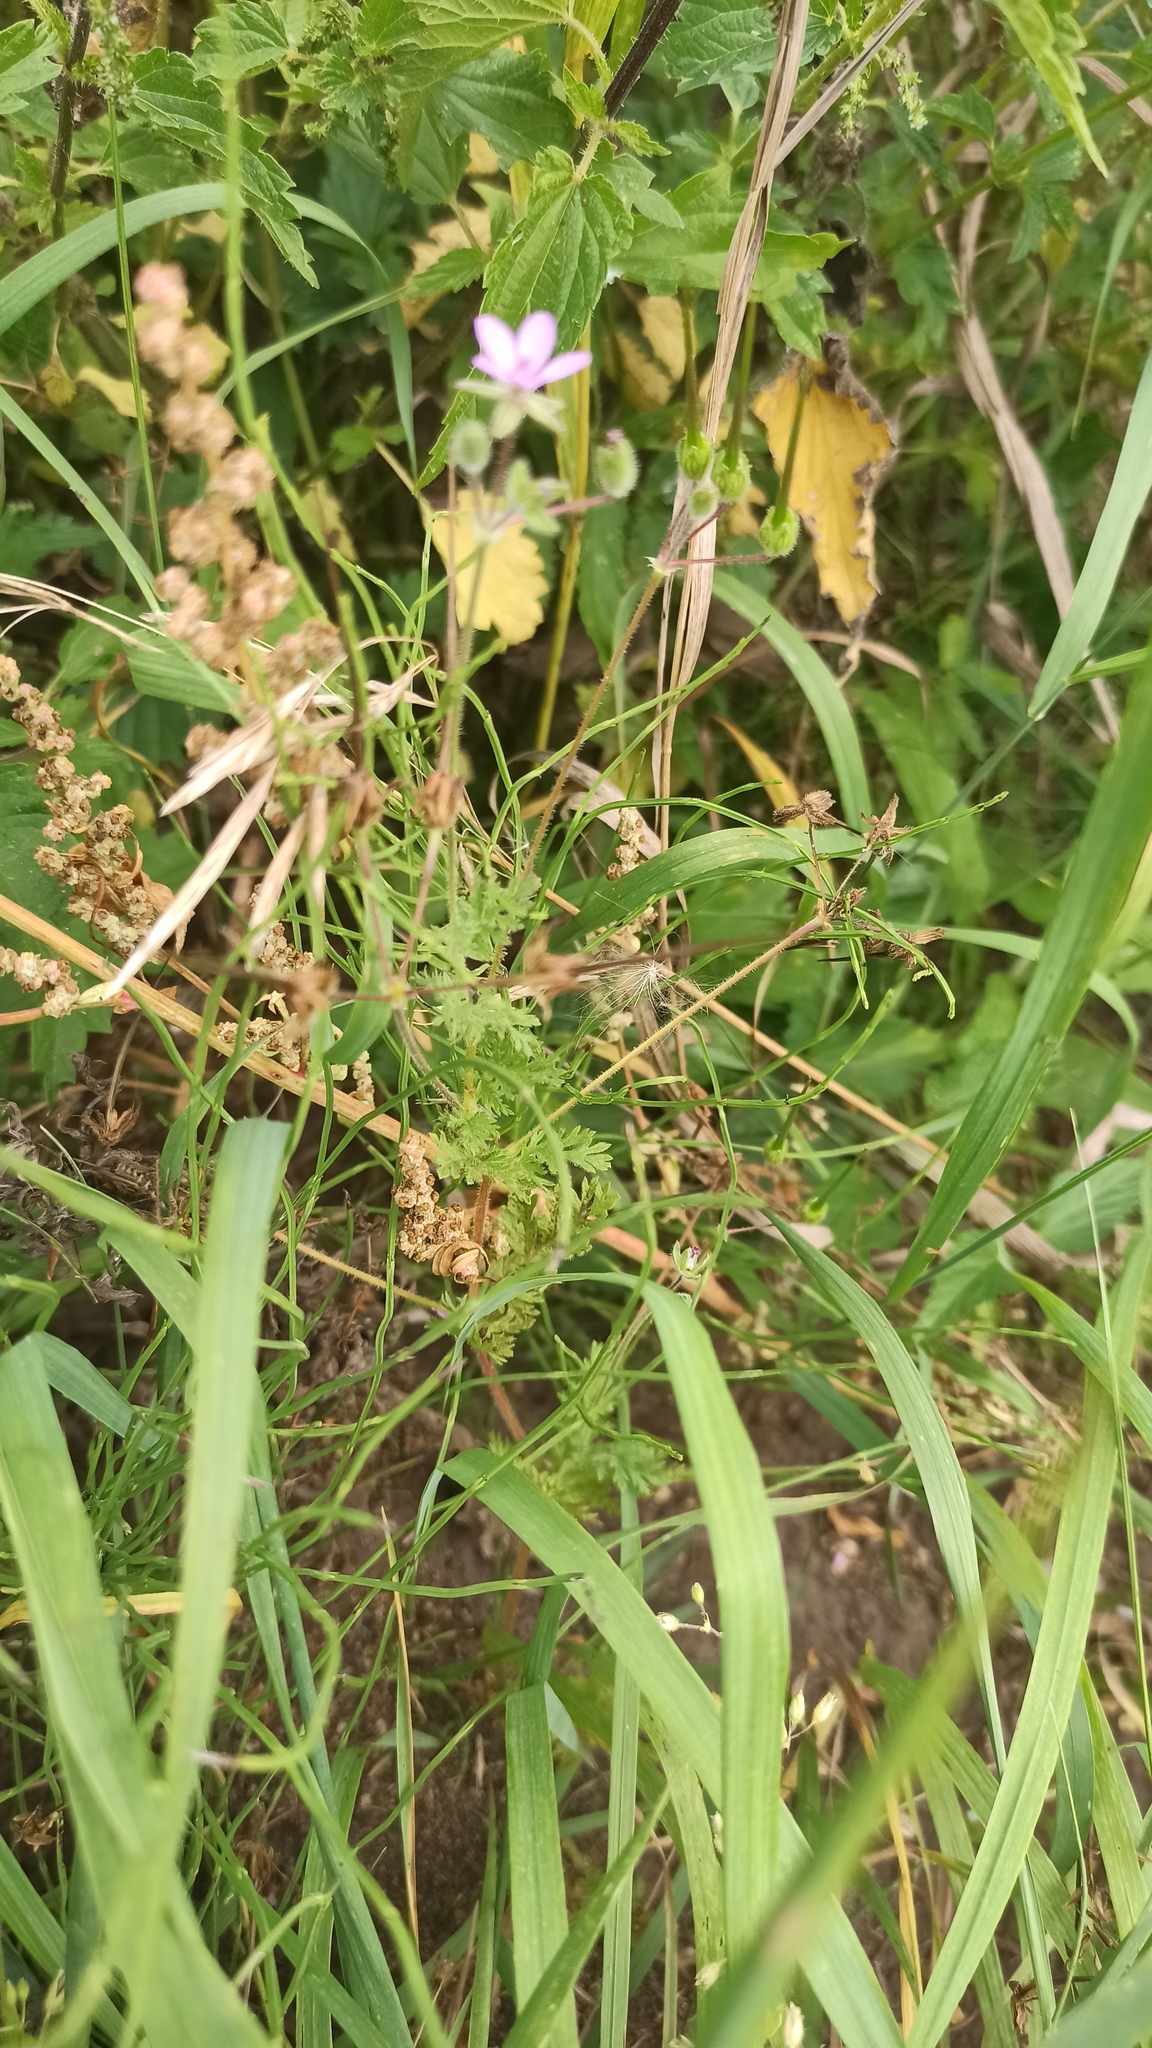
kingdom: Plantae
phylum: Tracheophyta
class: Magnoliopsida
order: Geraniales
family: Geraniaceae
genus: Erodium
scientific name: Erodium cicutarium
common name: Common stork's-bill
